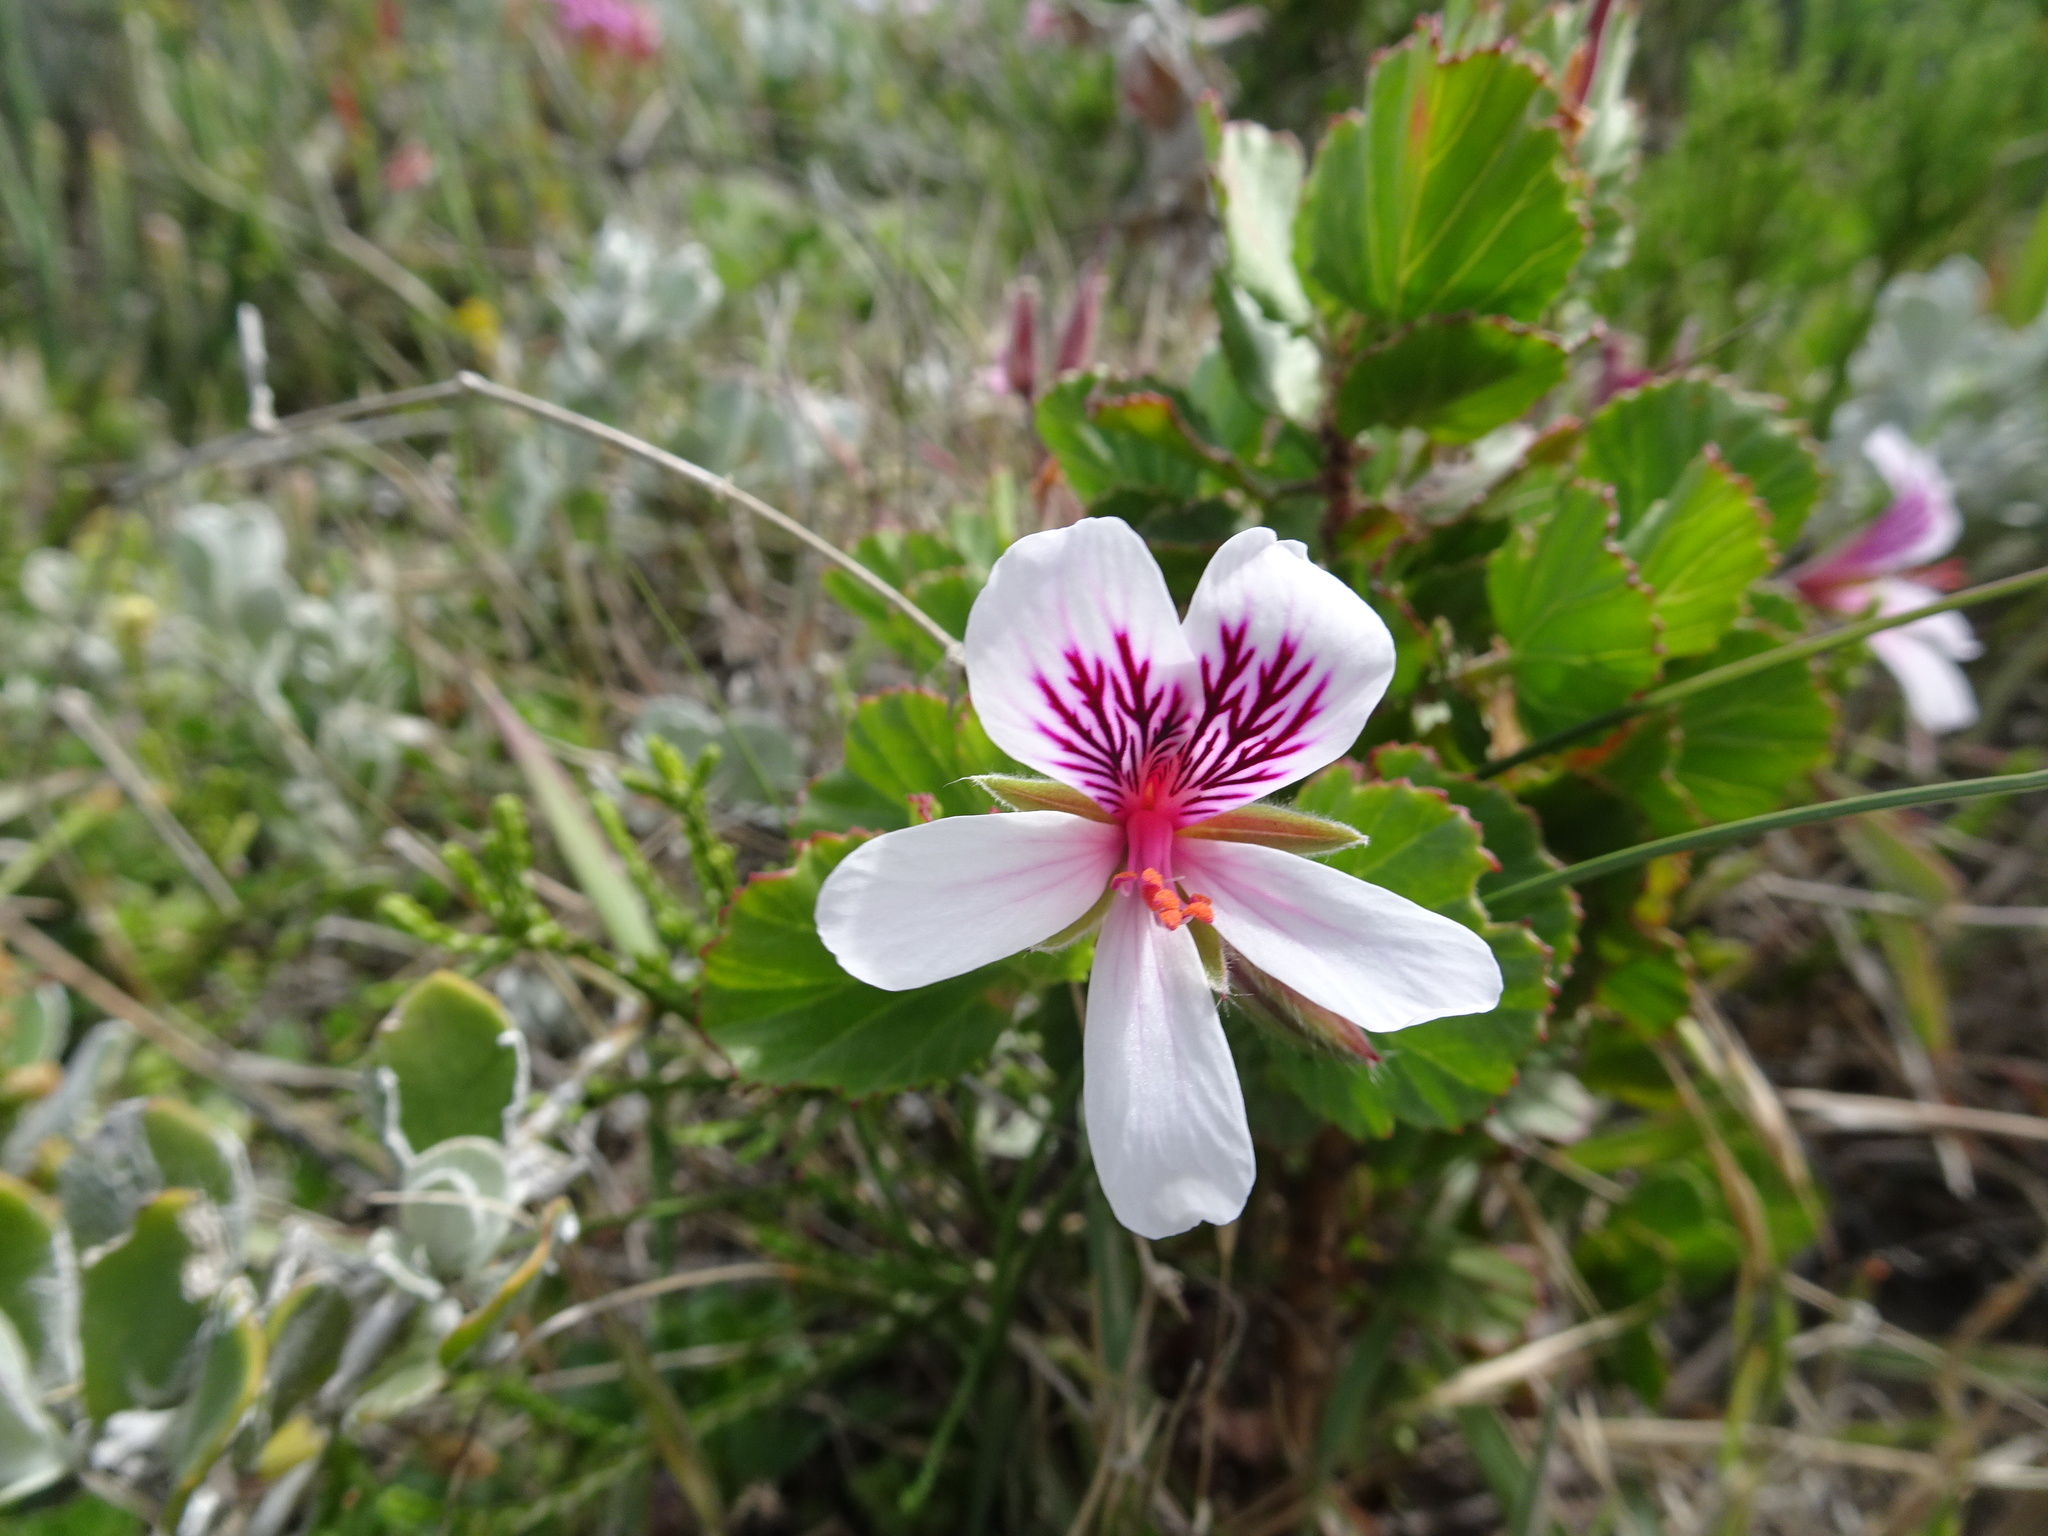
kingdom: Plantae
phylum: Tracheophyta
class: Magnoliopsida
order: Geraniales
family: Geraniaceae
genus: Pelargonium
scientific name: Pelargonium betulinum
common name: Birch-leaf pelargonium
